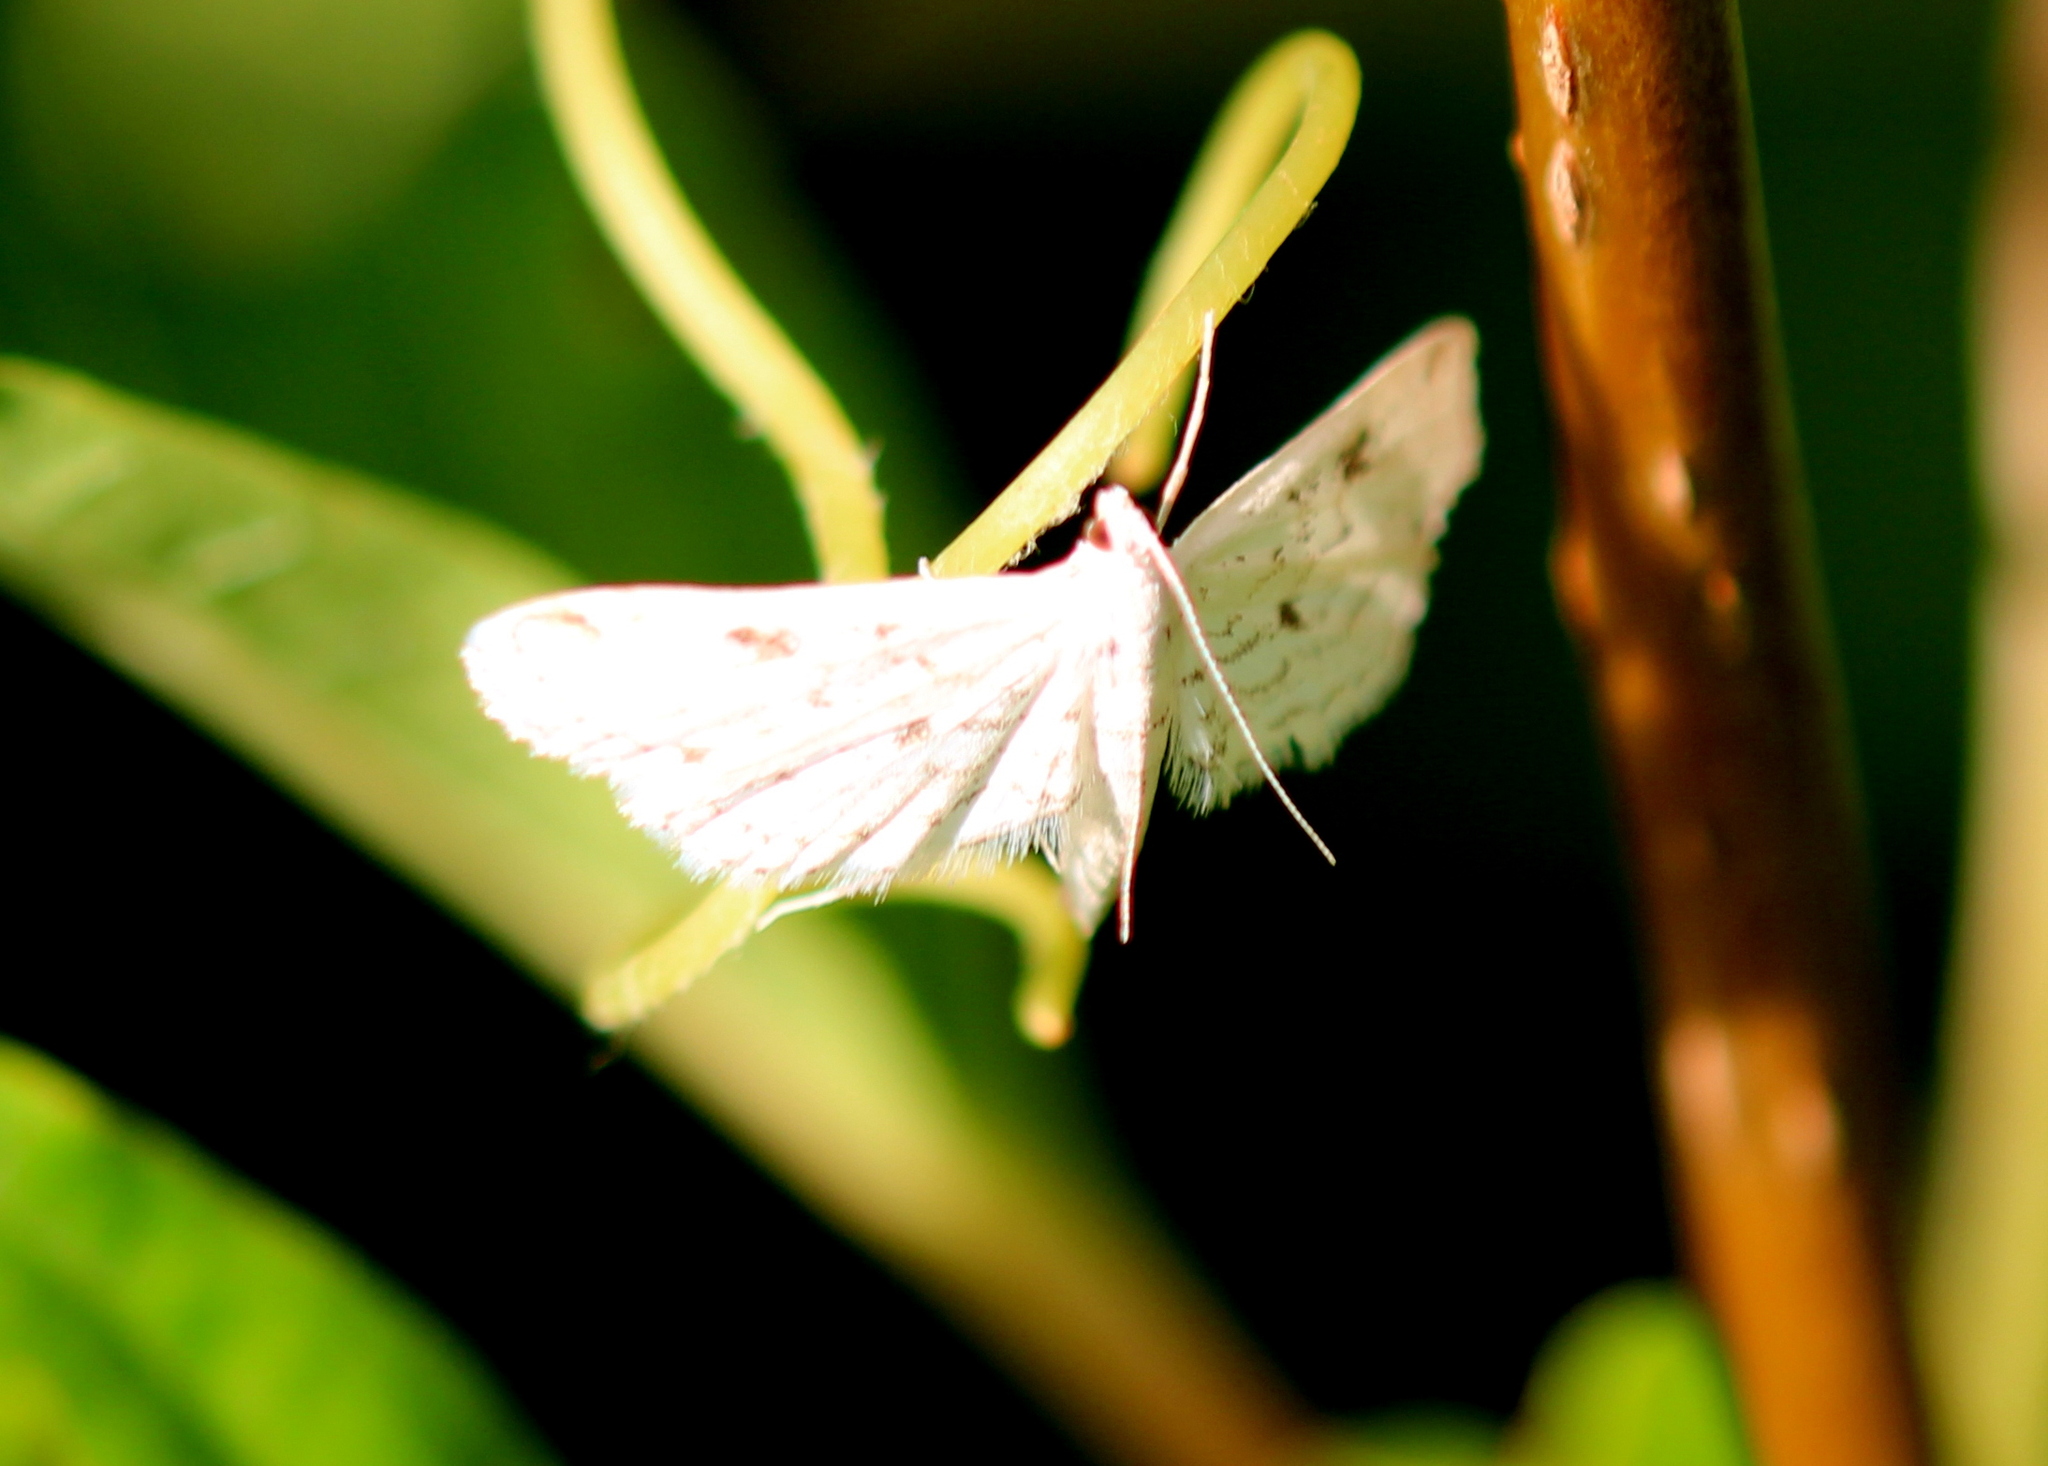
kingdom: Animalia
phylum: Arthropoda
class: Insecta
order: Lepidoptera
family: Crambidae
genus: Parapoynx
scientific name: Parapoynx allionealis
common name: Bladderwort casemaker
